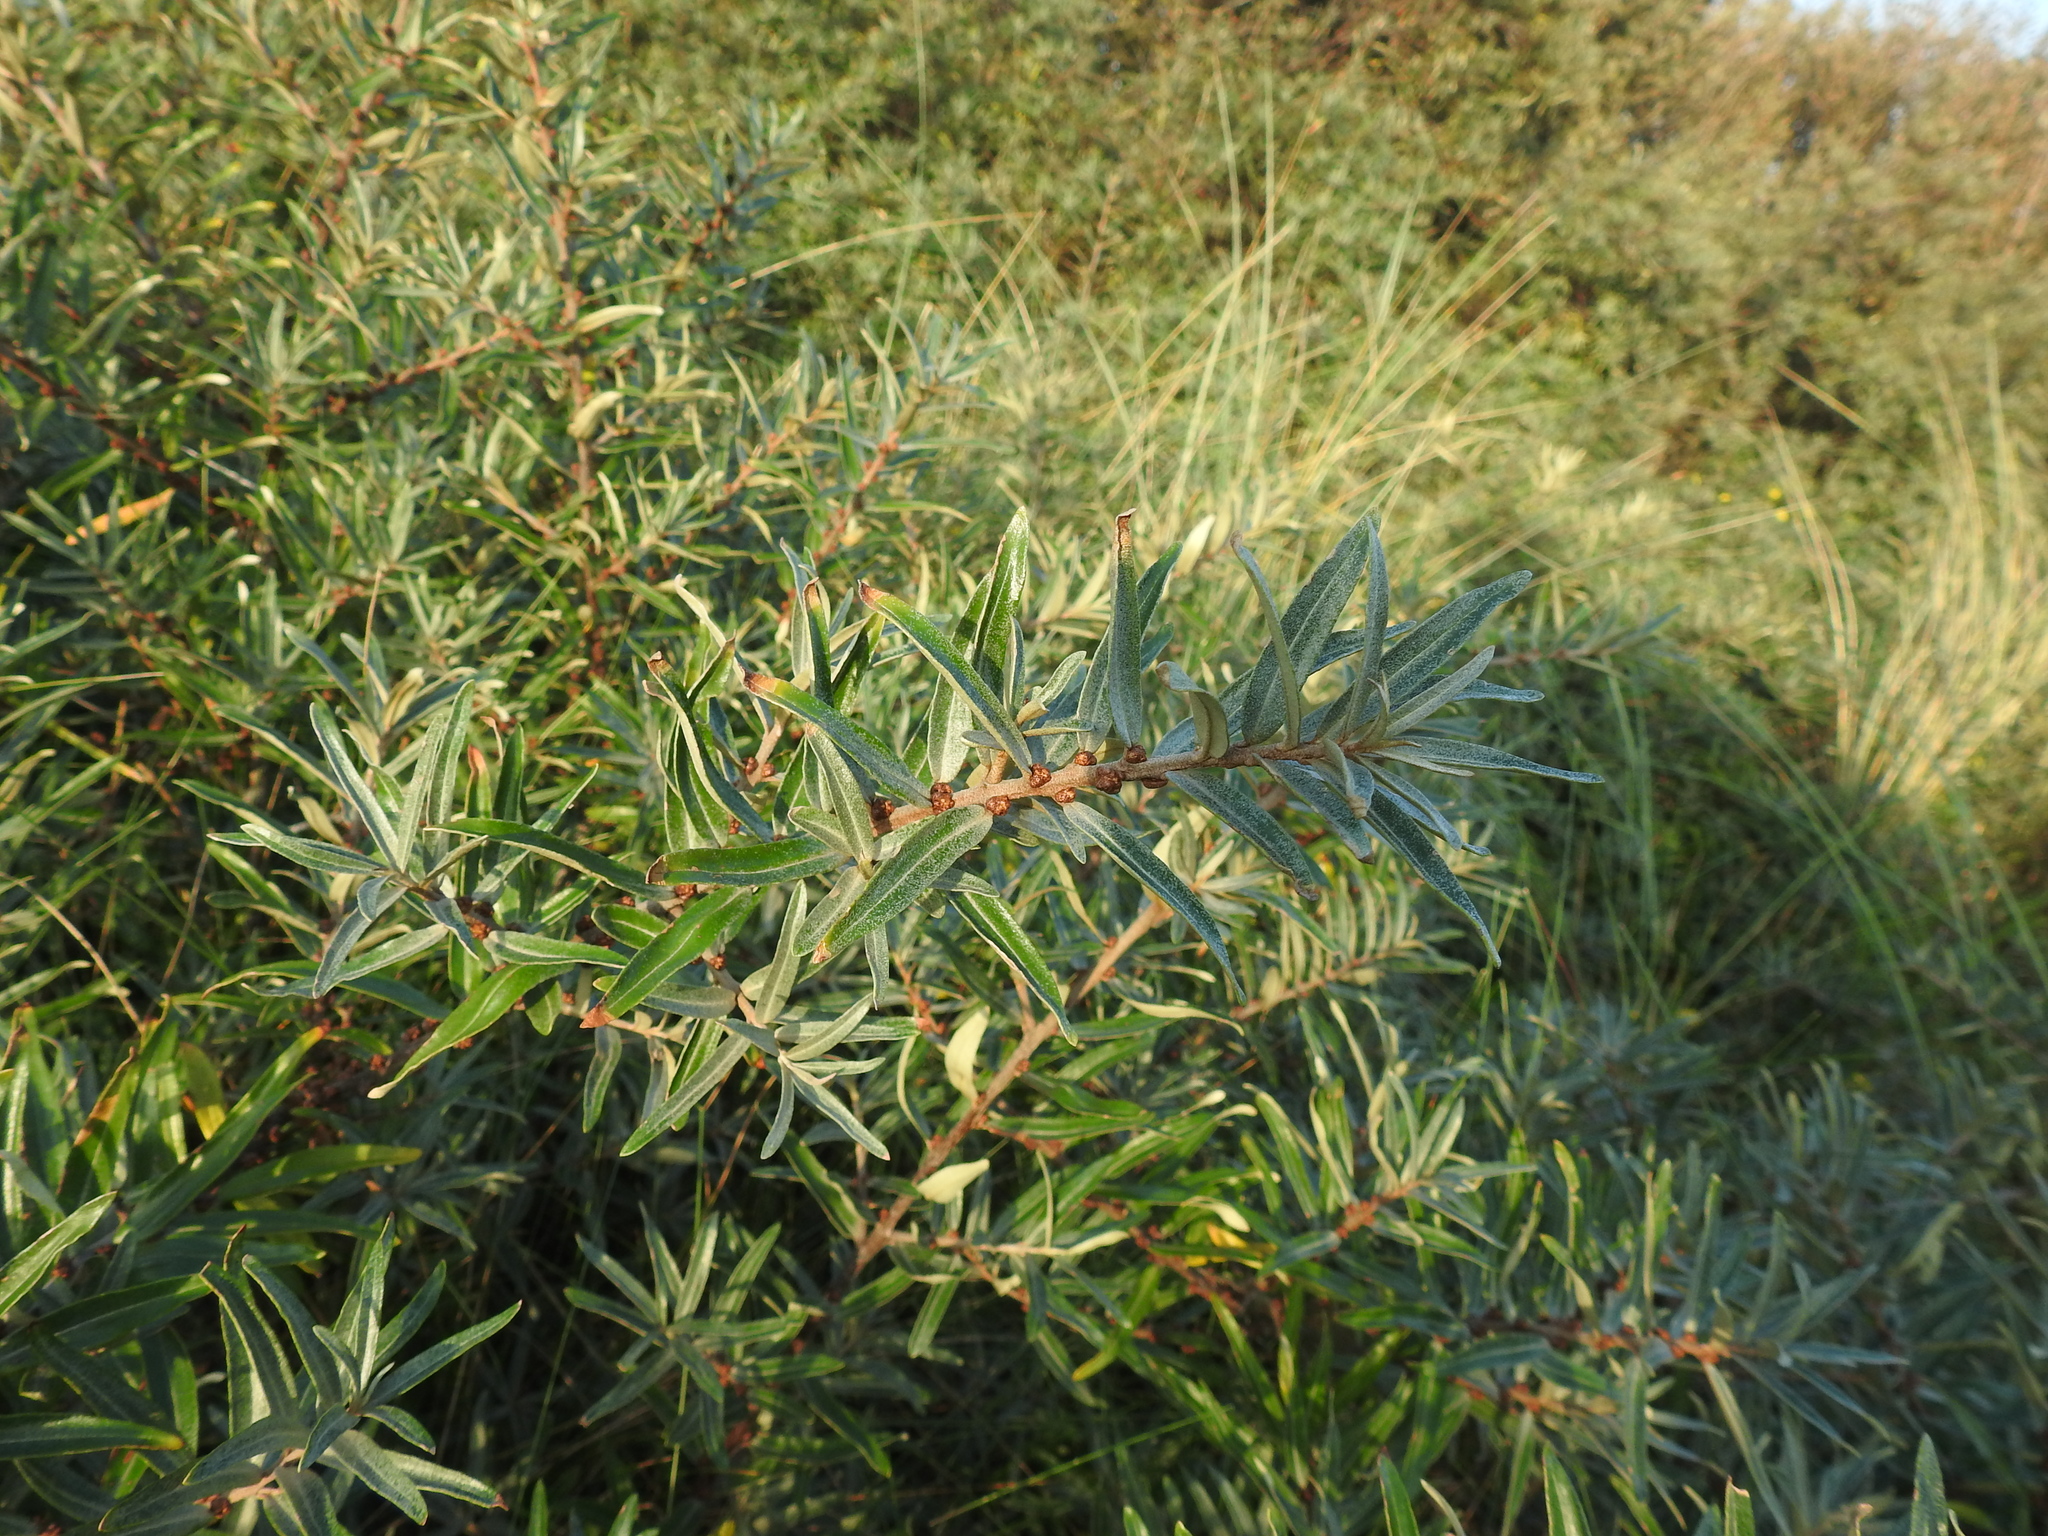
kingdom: Plantae
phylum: Tracheophyta
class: Magnoliopsida
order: Rosales
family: Elaeagnaceae
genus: Hippophae
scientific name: Hippophae rhamnoides
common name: Sea-buckthorn
